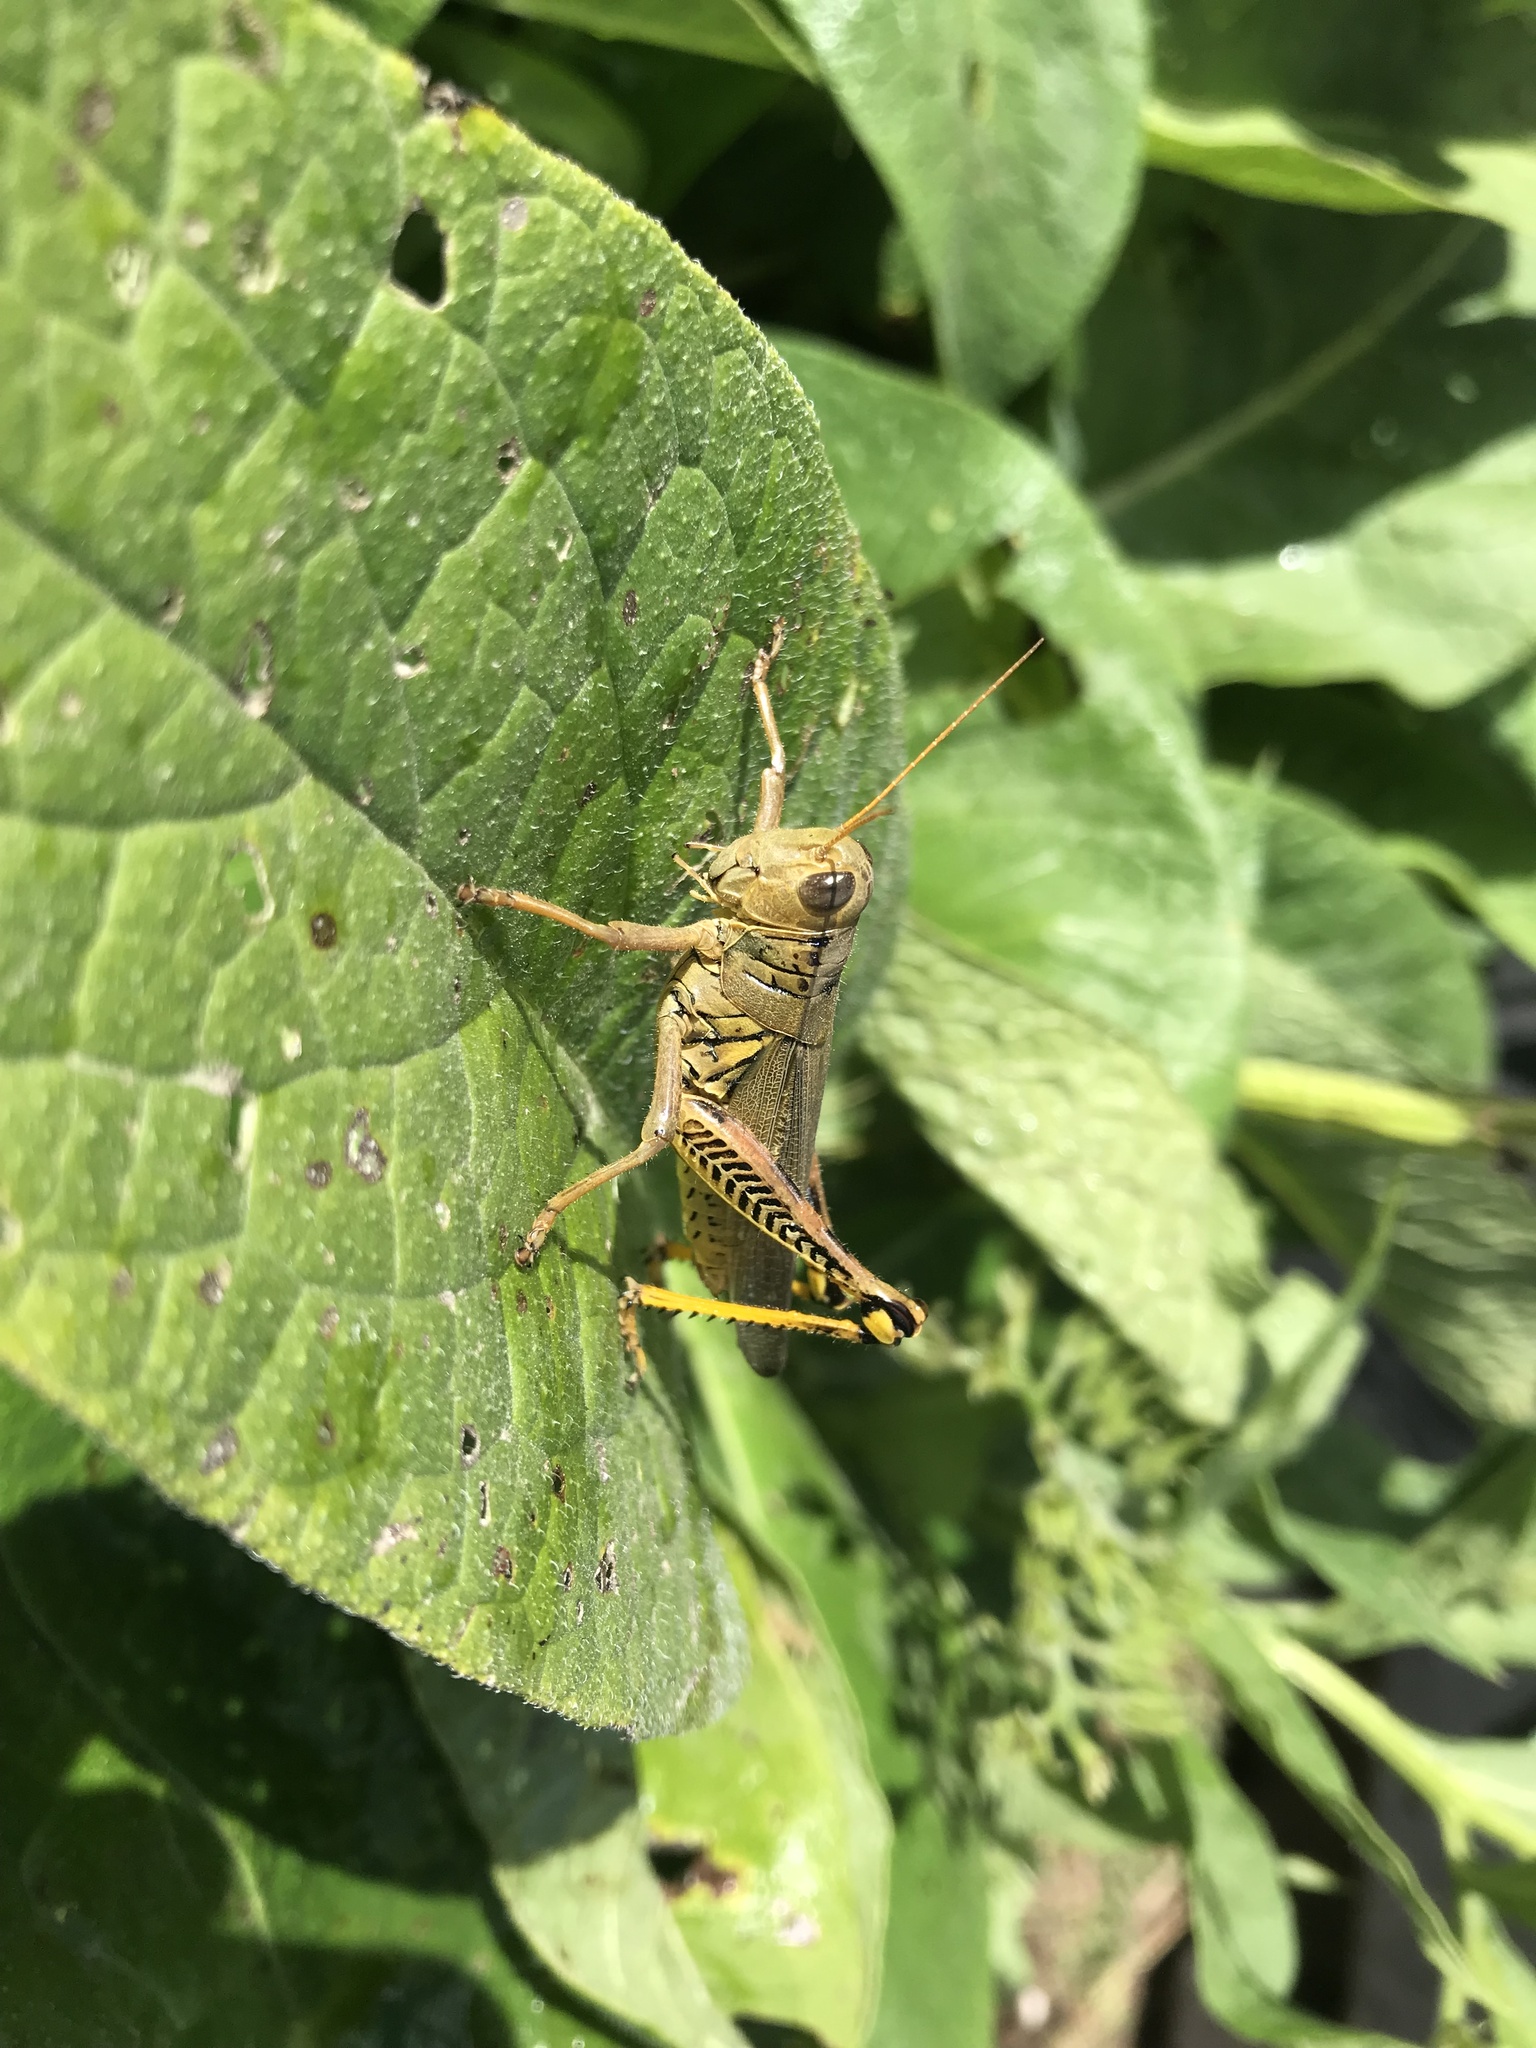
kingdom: Animalia
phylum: Arthropoda
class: Insecta
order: Orthoptera
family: Acrididae
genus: Melanoplus
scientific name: Melanoplus differentialis
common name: Differential grasshopper
